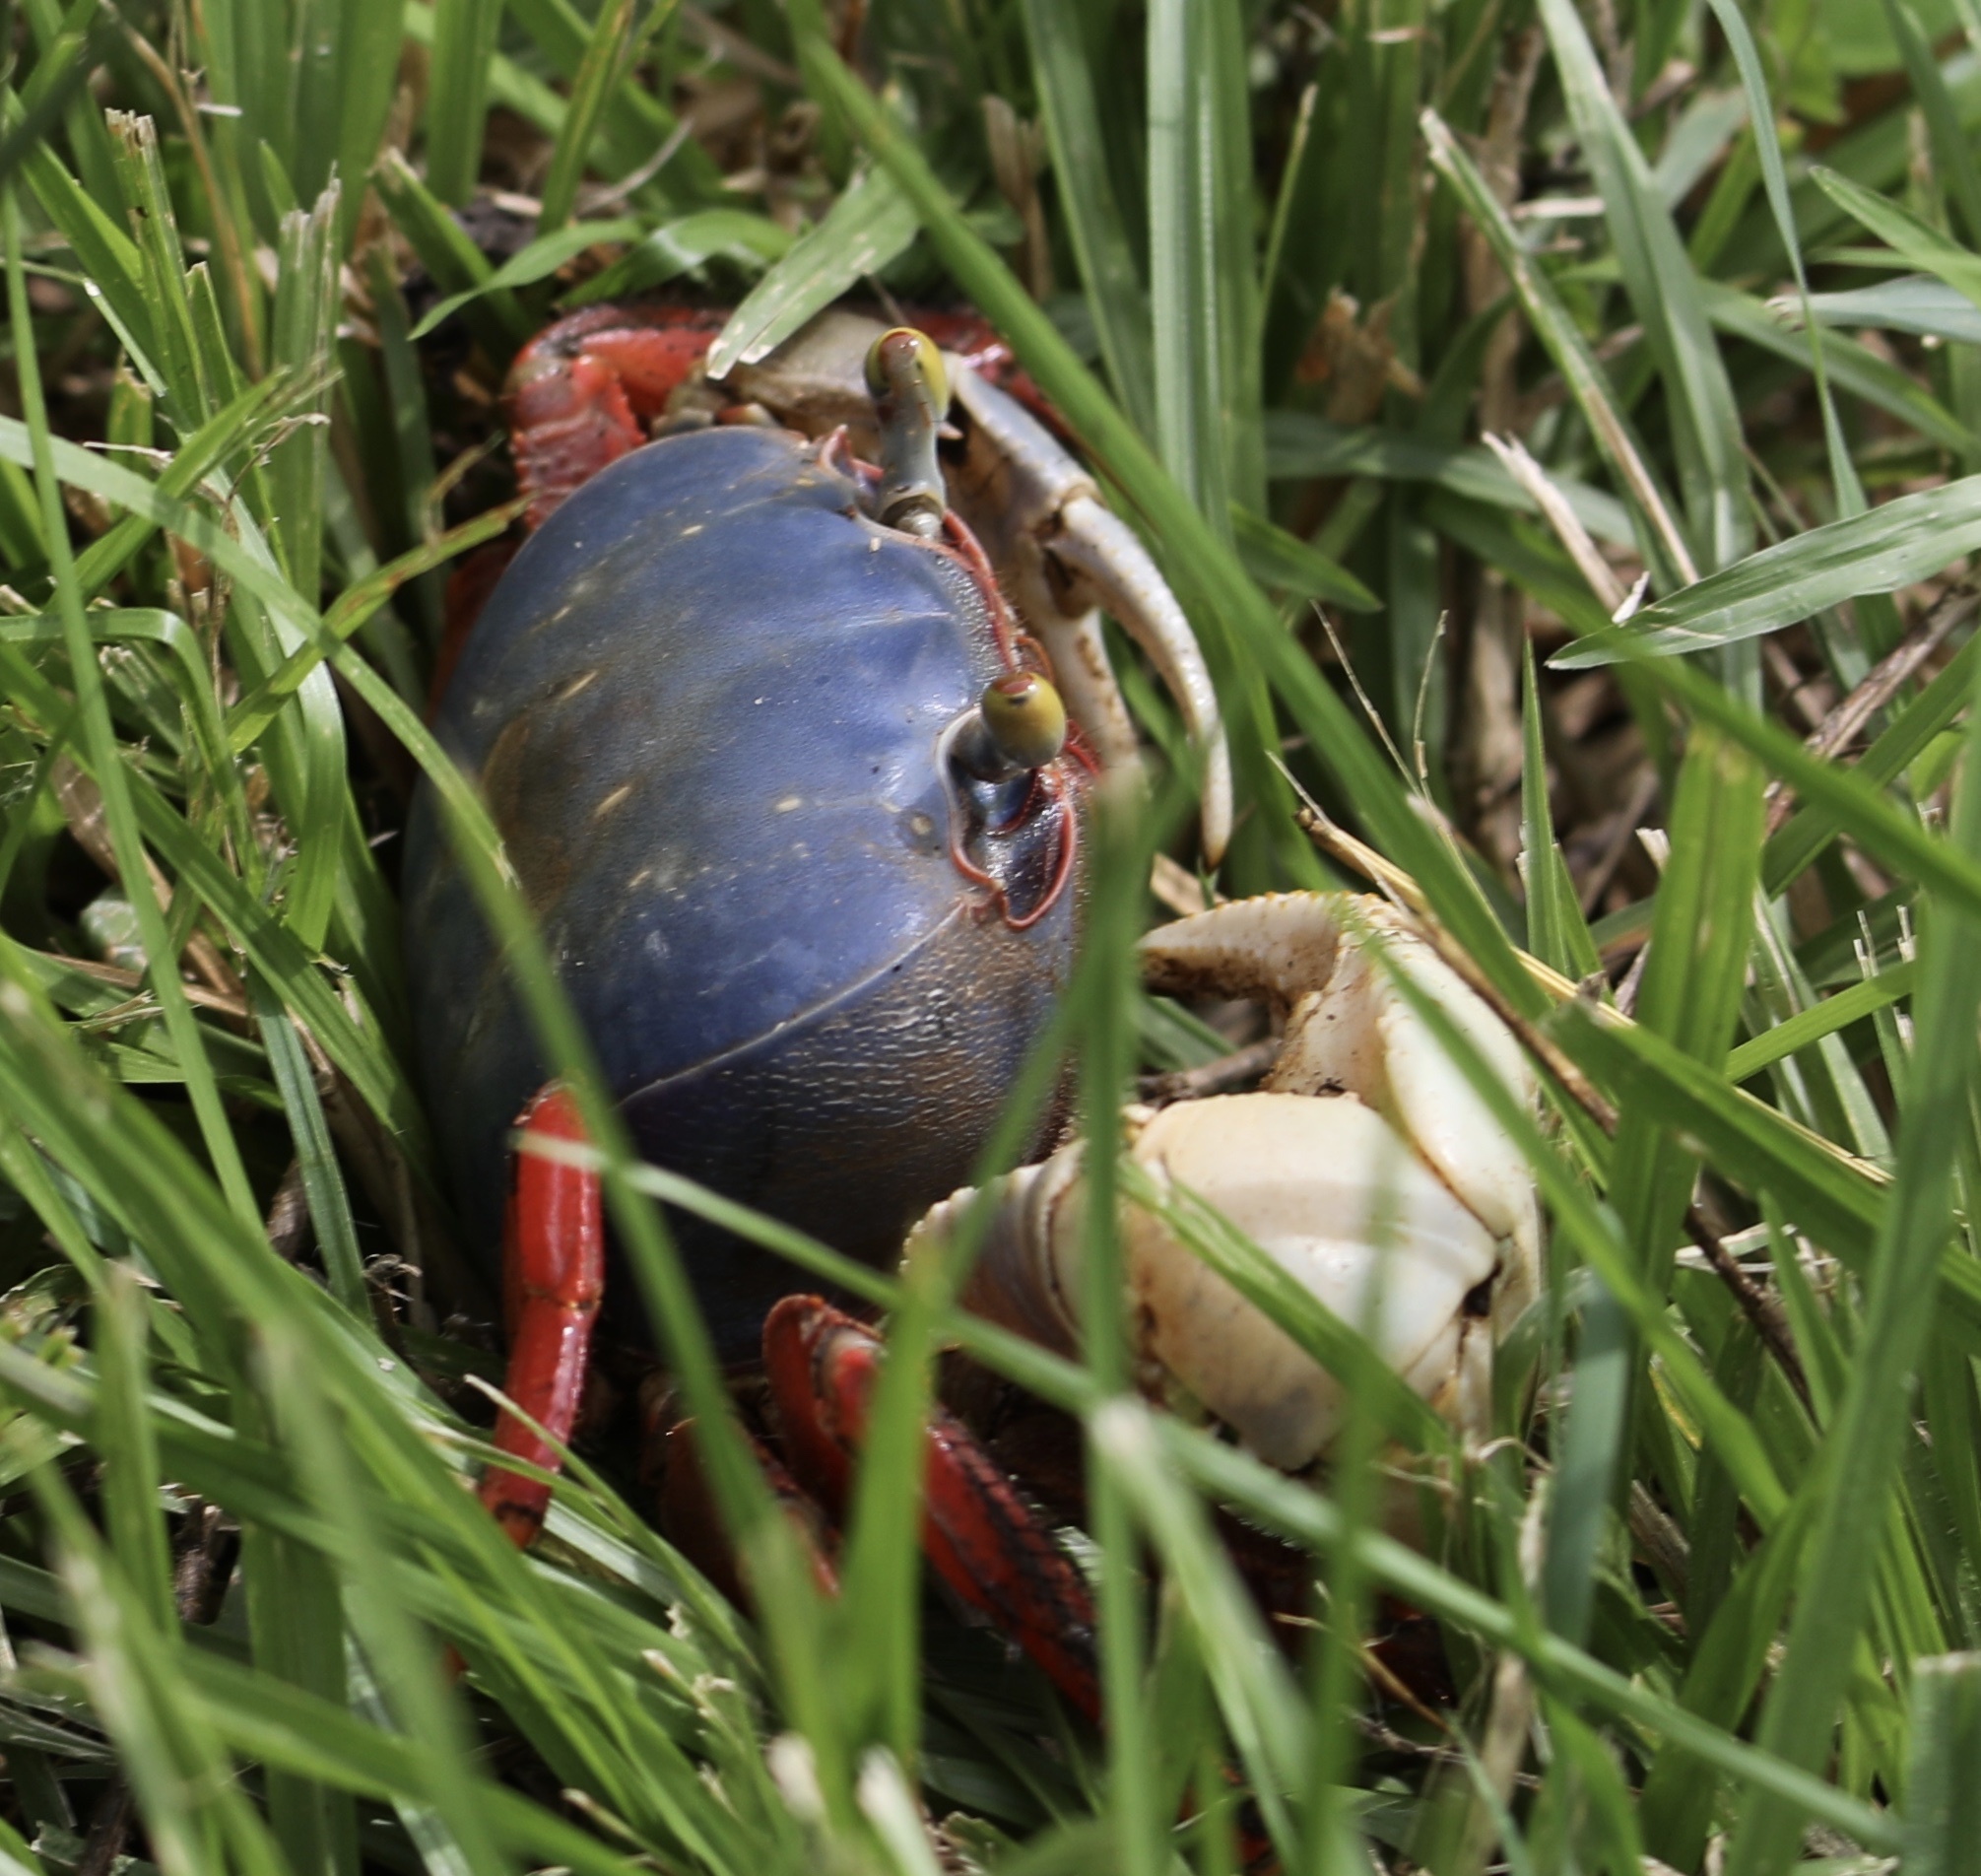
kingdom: Animalia
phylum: Arthropoda
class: Malacostraca
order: Decapoda
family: Gecarcinidae
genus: Cardisoma
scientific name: Cardisoma crassum
